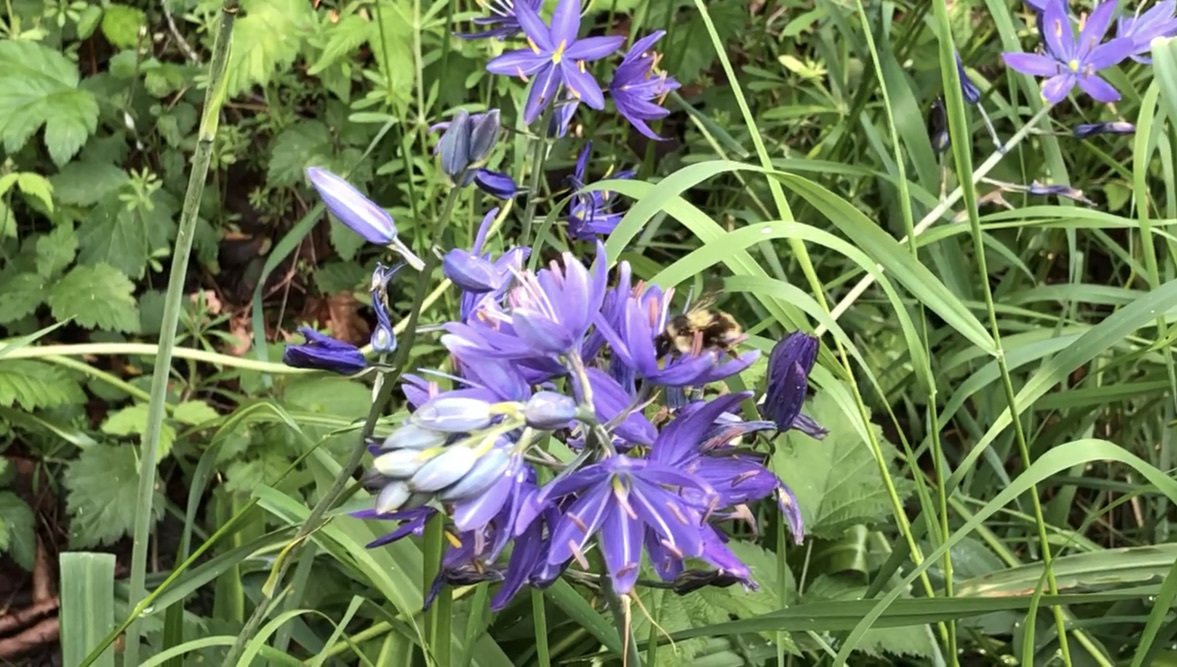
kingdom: Plantae
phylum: Tracheophyta
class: Liliopsida
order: Asparagales
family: Asparagaceae
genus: Camassia
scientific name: Camassia leichtlinii
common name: Leichtlin's camas
